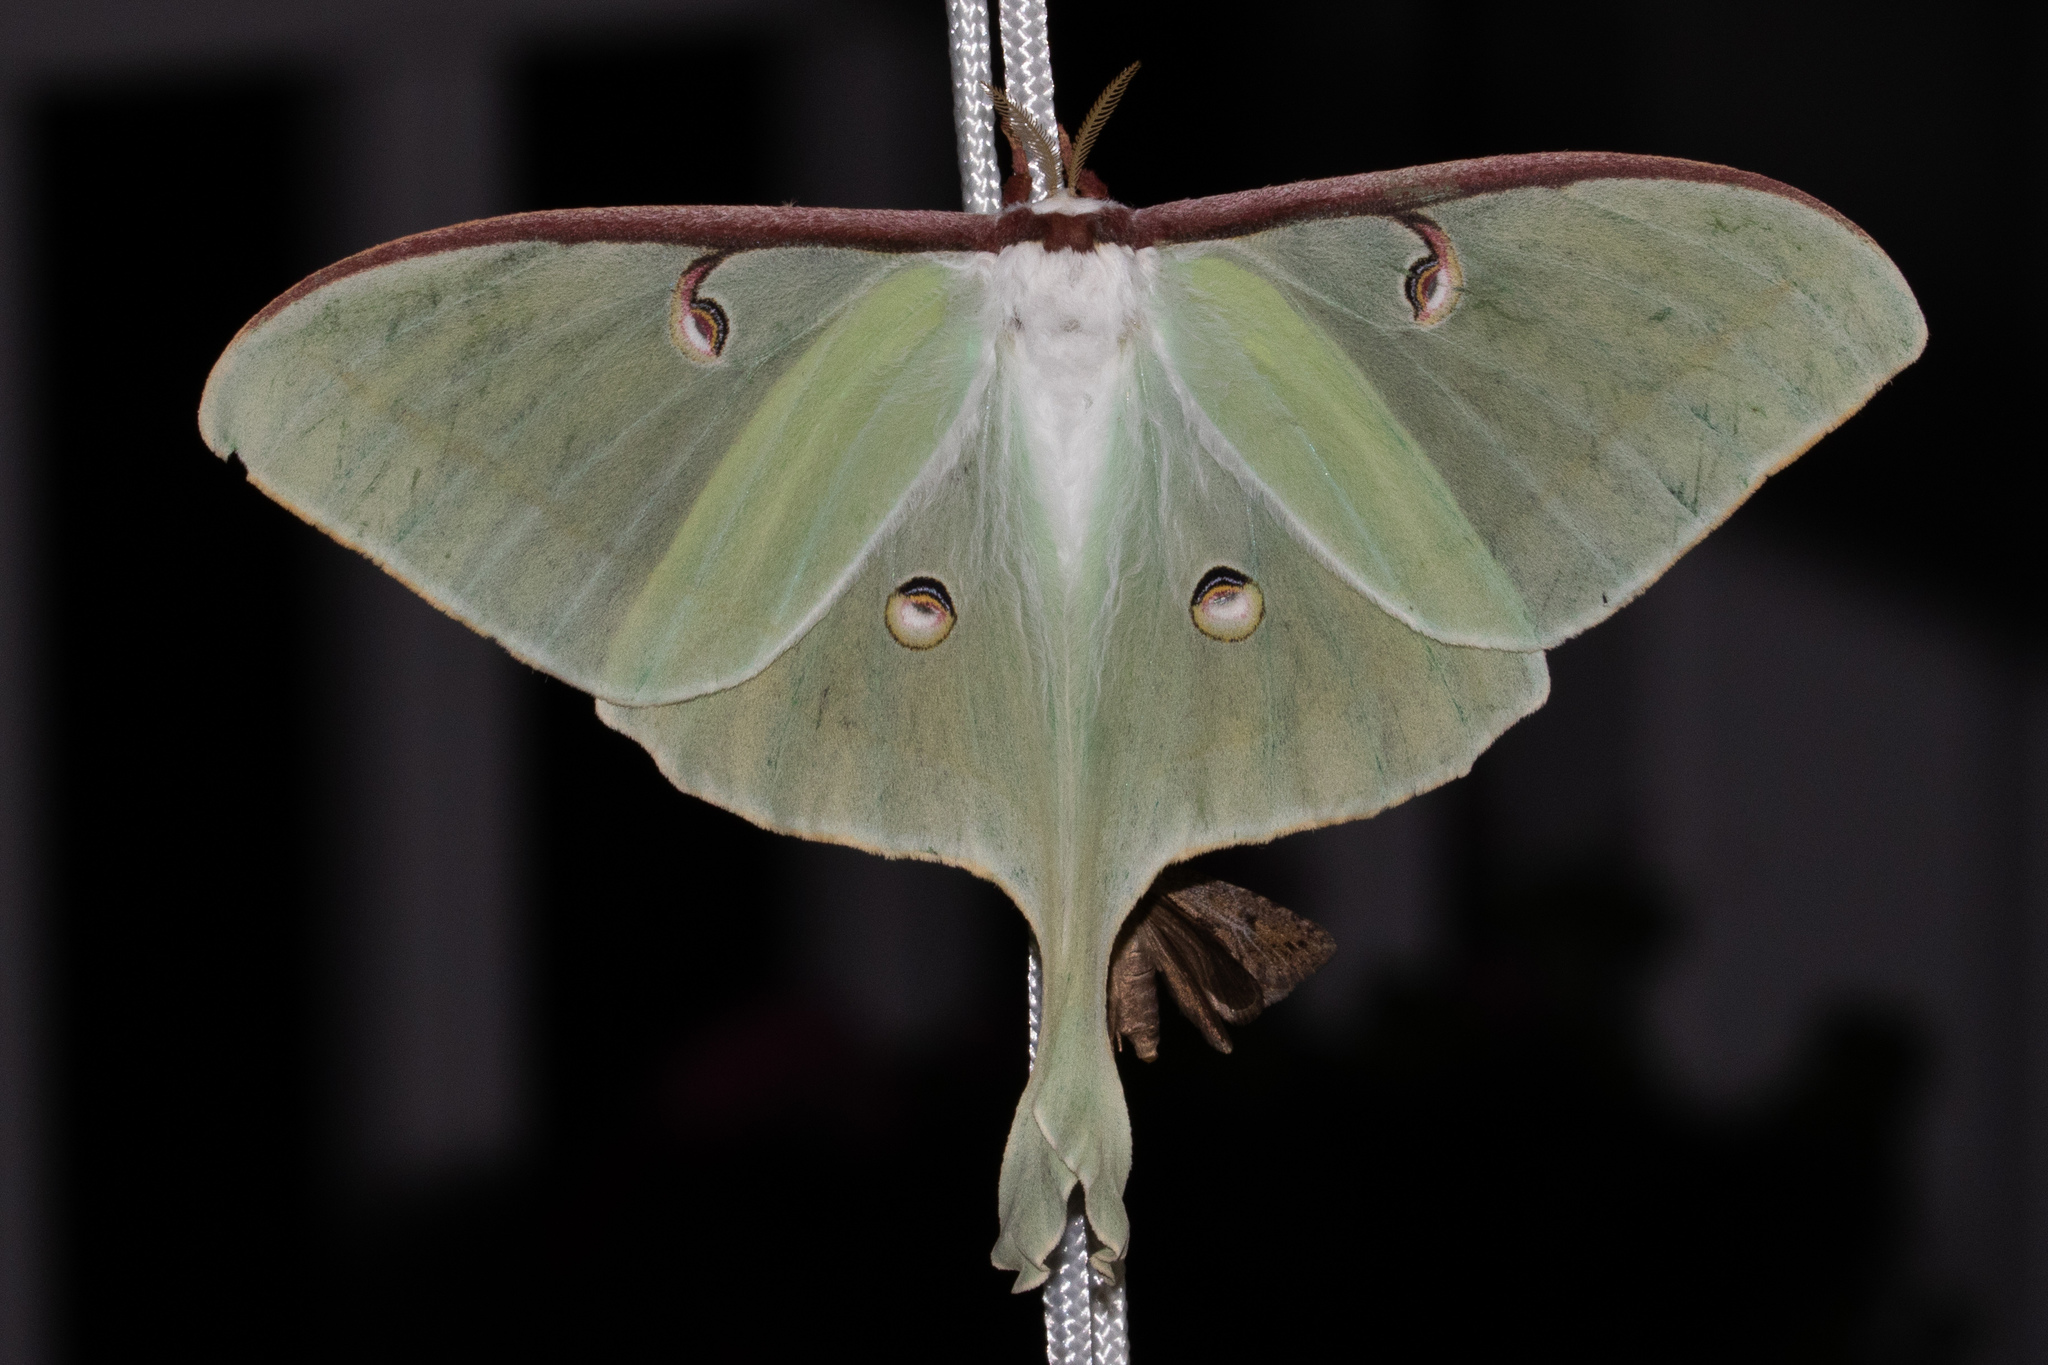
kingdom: Animalia
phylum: Arthropoda
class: Insecta
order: Lepidoptera
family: Saturniidae
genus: Actias
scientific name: Actias luna
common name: Luna moth
